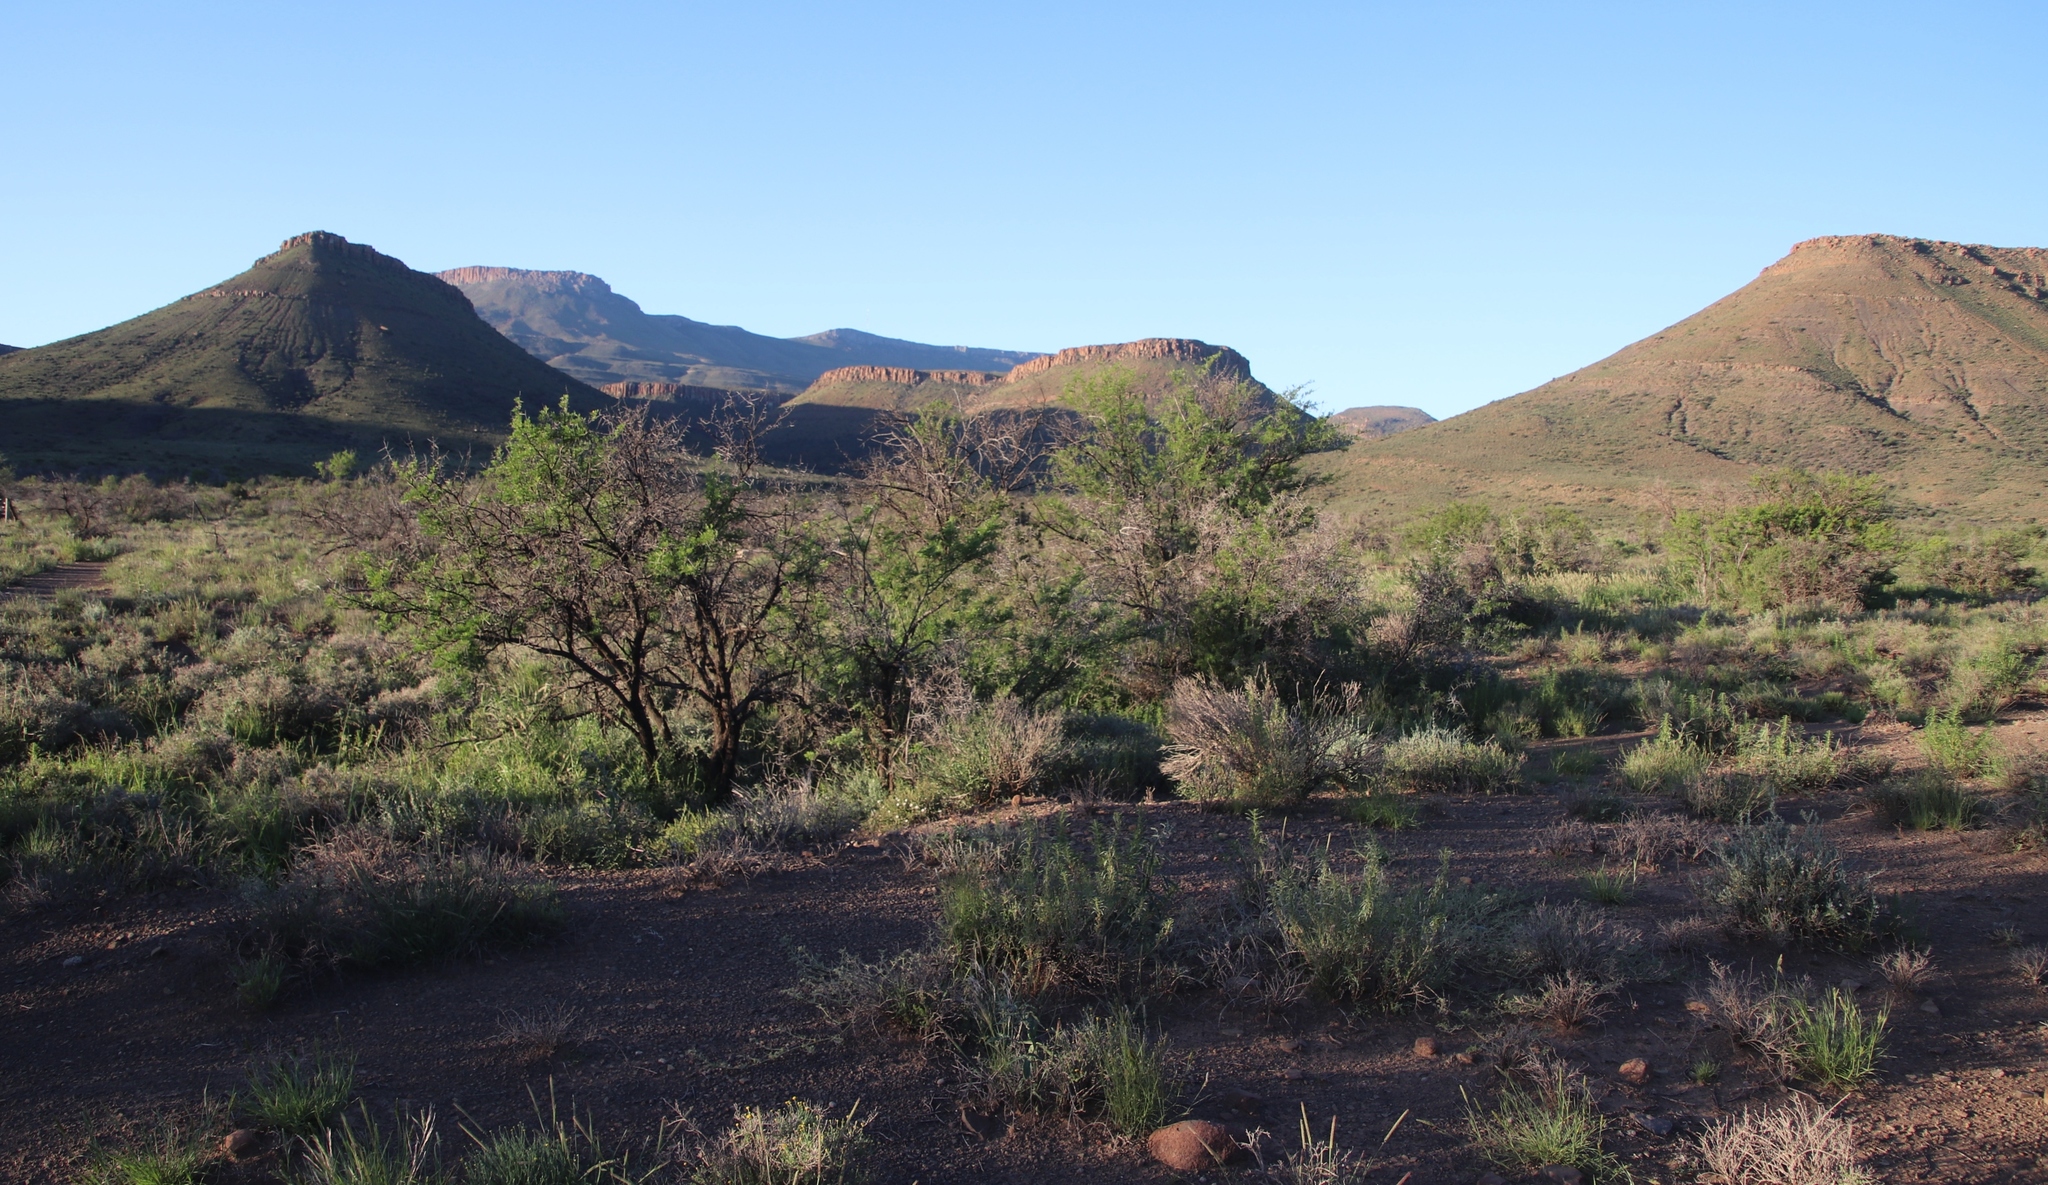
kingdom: Plantae
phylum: Tracheophyta
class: Magnoliopsida
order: Fabales
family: Fabaceae
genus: Vachellia
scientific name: Vachellia karroo
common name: Sweet thorn
